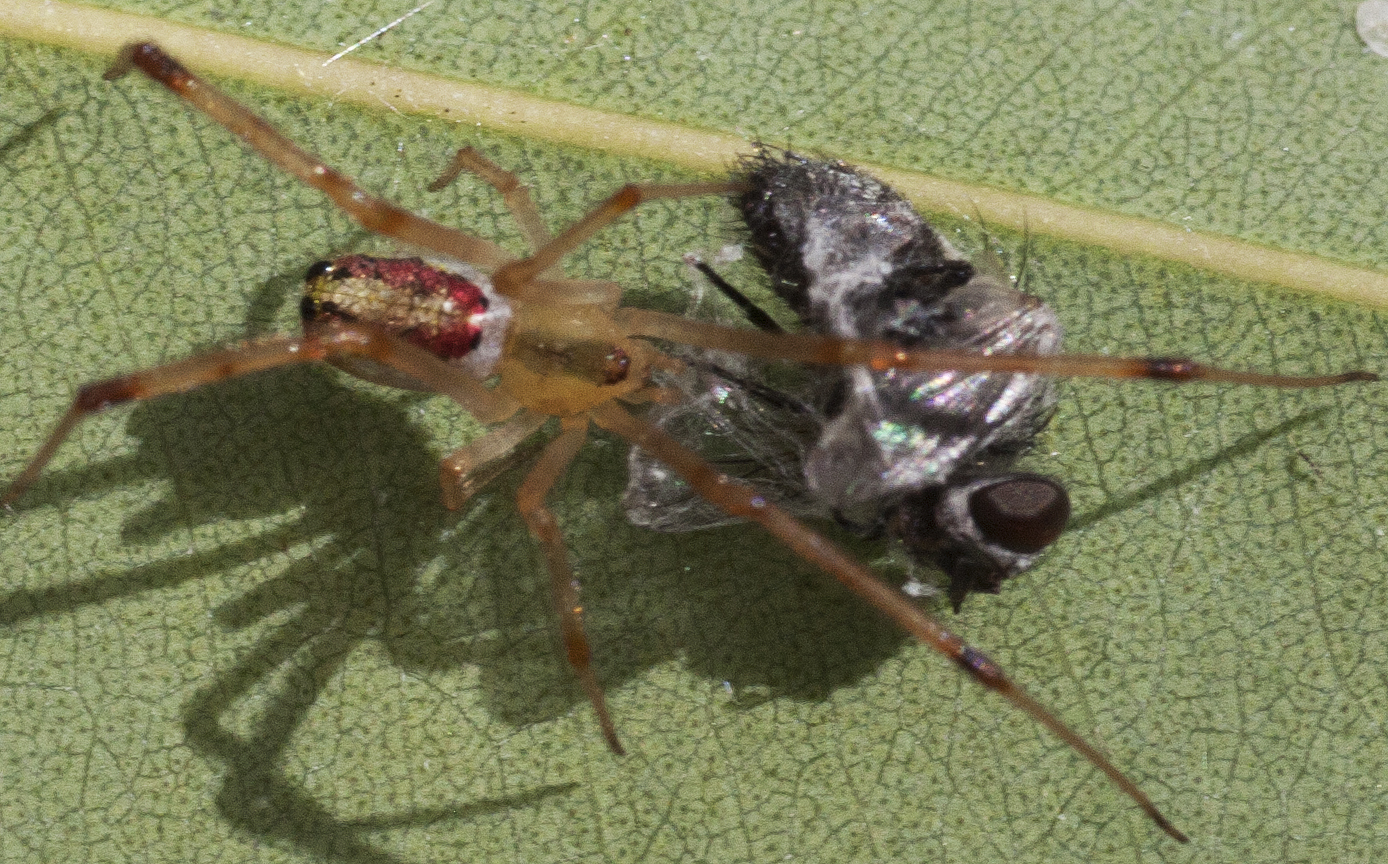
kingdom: Animalia
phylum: Arthropoda
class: Arachnida
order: Araneae
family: Theridiidae
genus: Thwaitesia
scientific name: Thwaitesia nigronodosa
